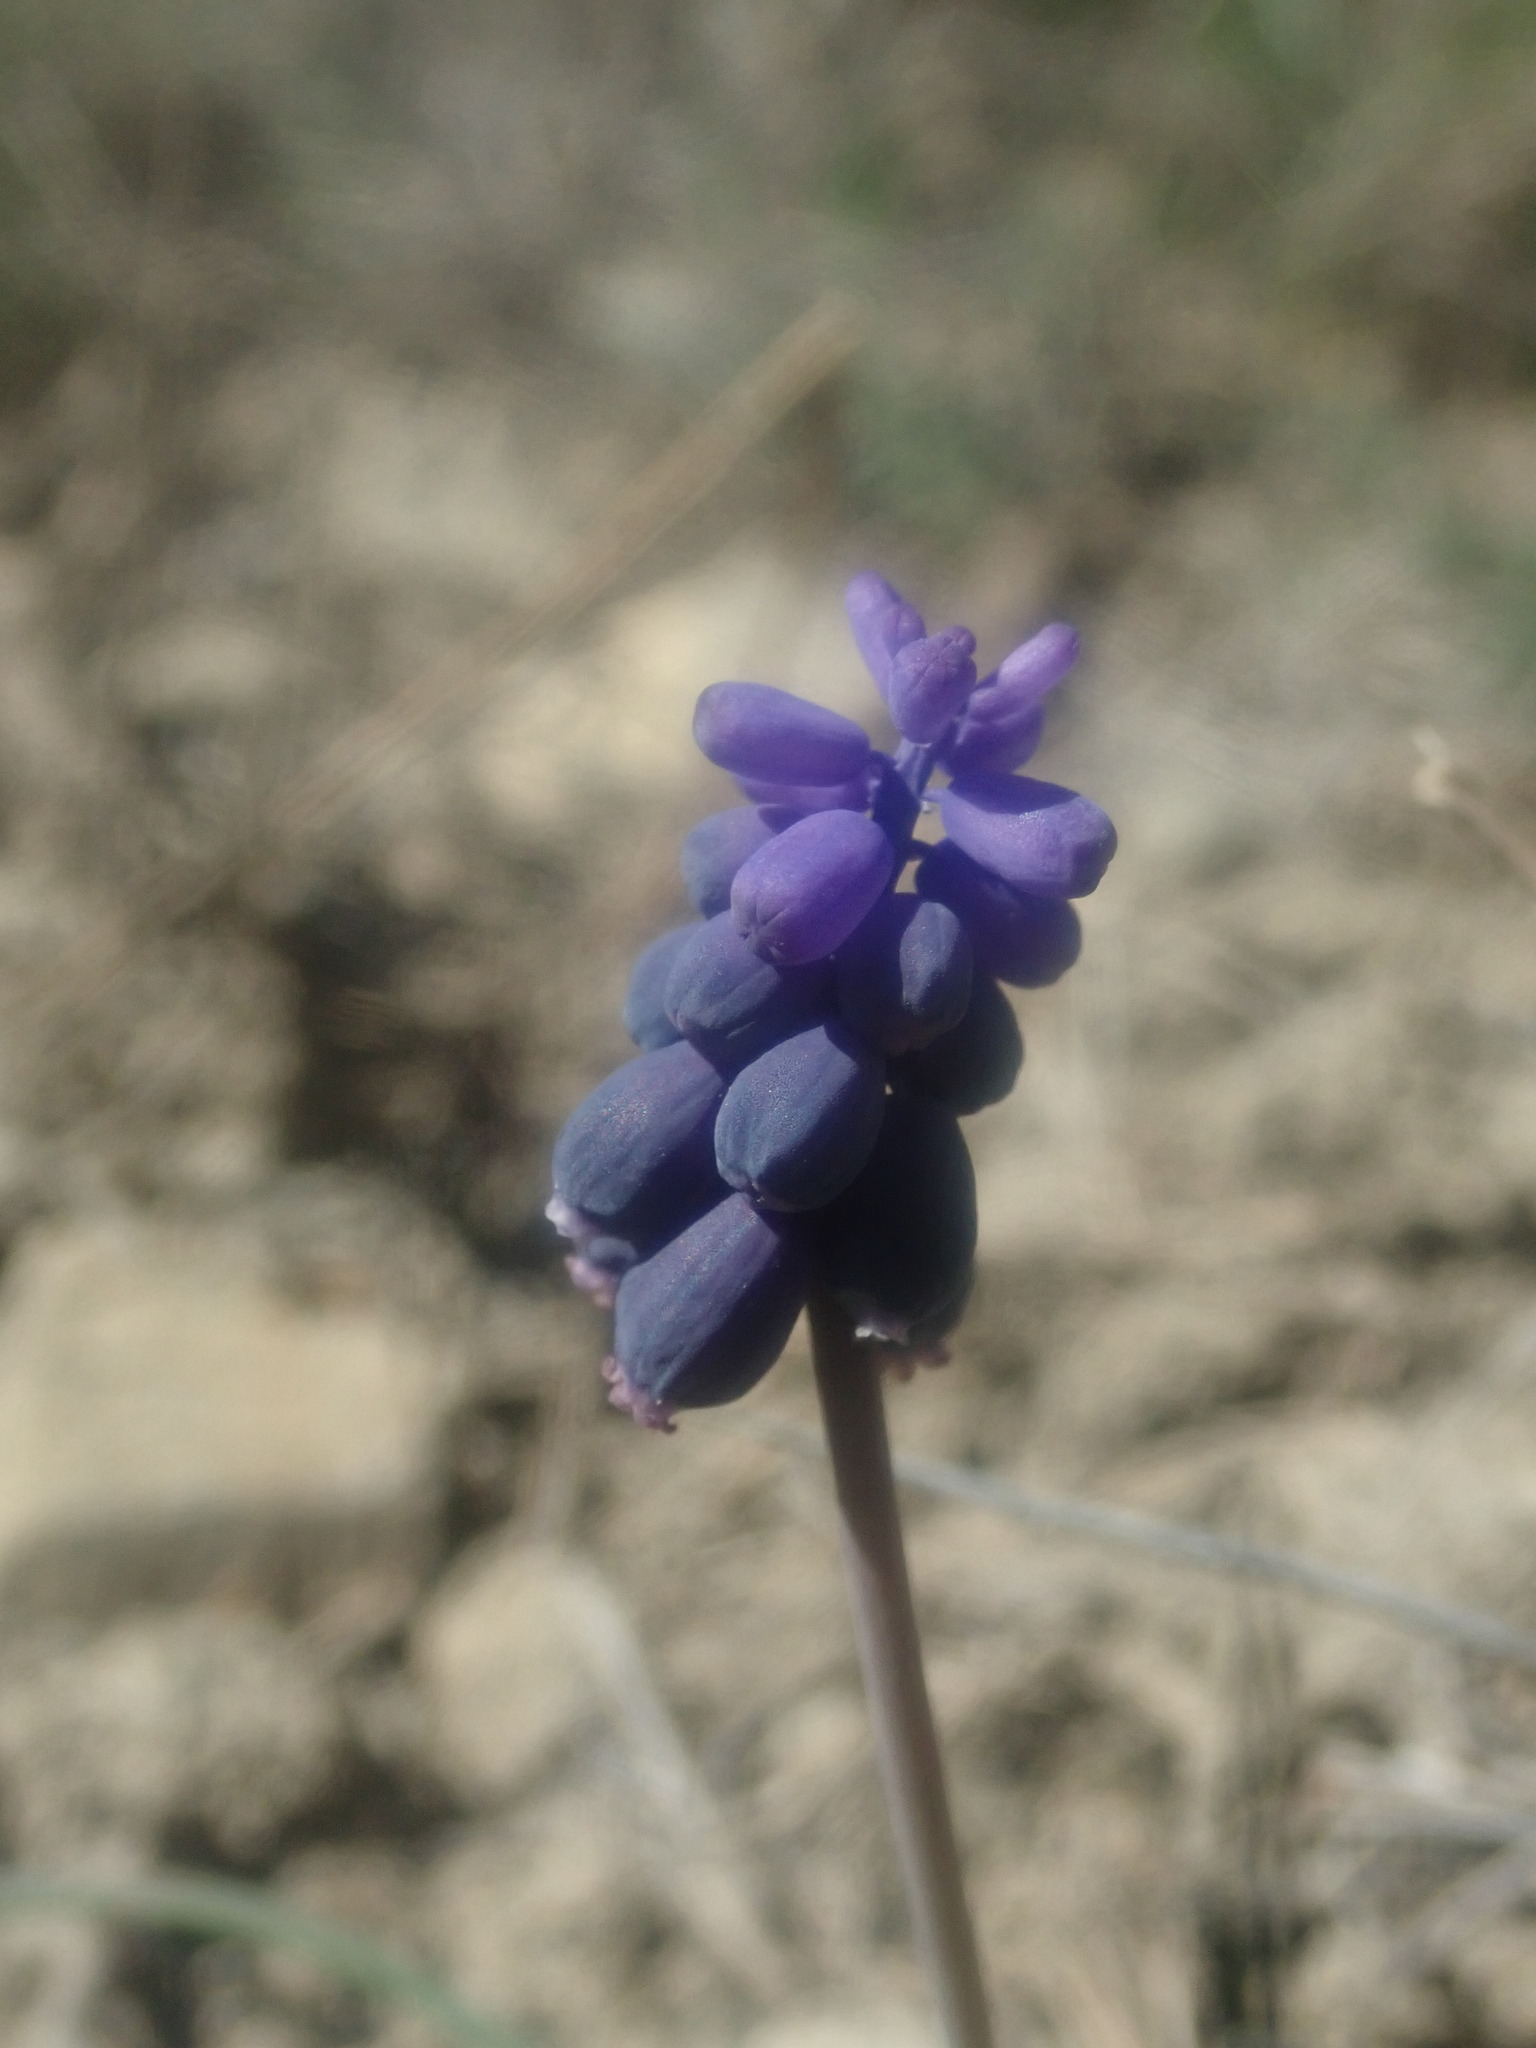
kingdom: Plantae
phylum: Tracheophyta
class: Liliopsida
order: Asparagales
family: Asparagaceae
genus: Muscari
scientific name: Muscari neglectum
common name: Grape-hyacinth
